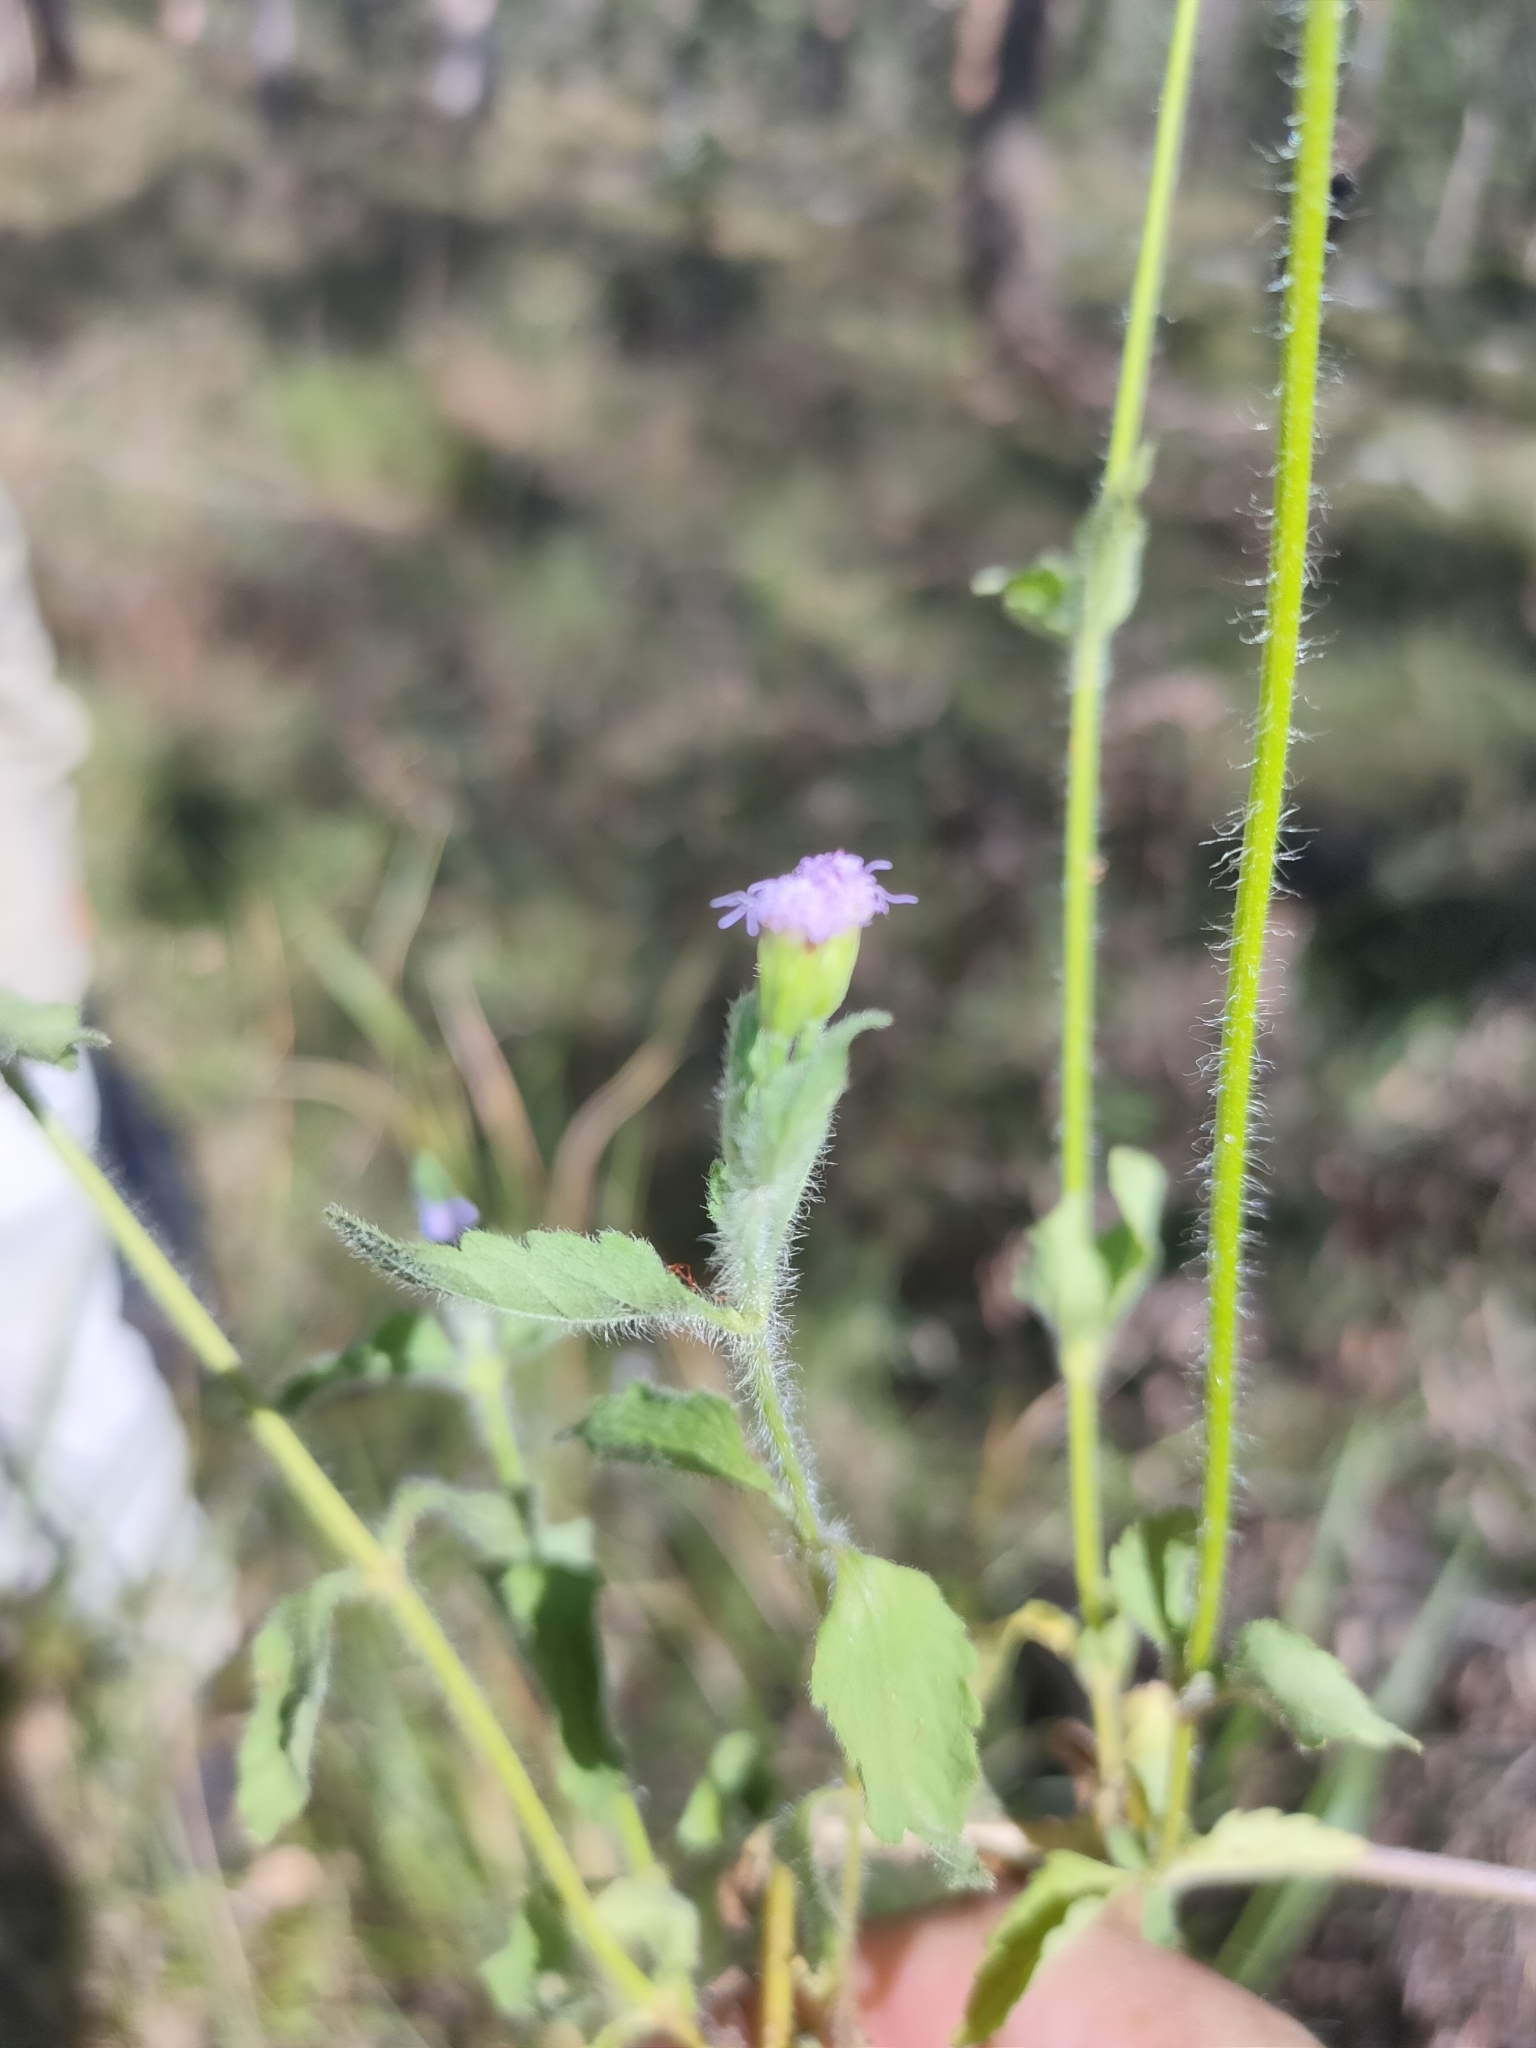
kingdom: Plantae
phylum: Tracheophyta
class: Magnoliopsida
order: Asterales
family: Asteraceae
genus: Praxelis
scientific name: Praxelis clematidea
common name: Praxelis
